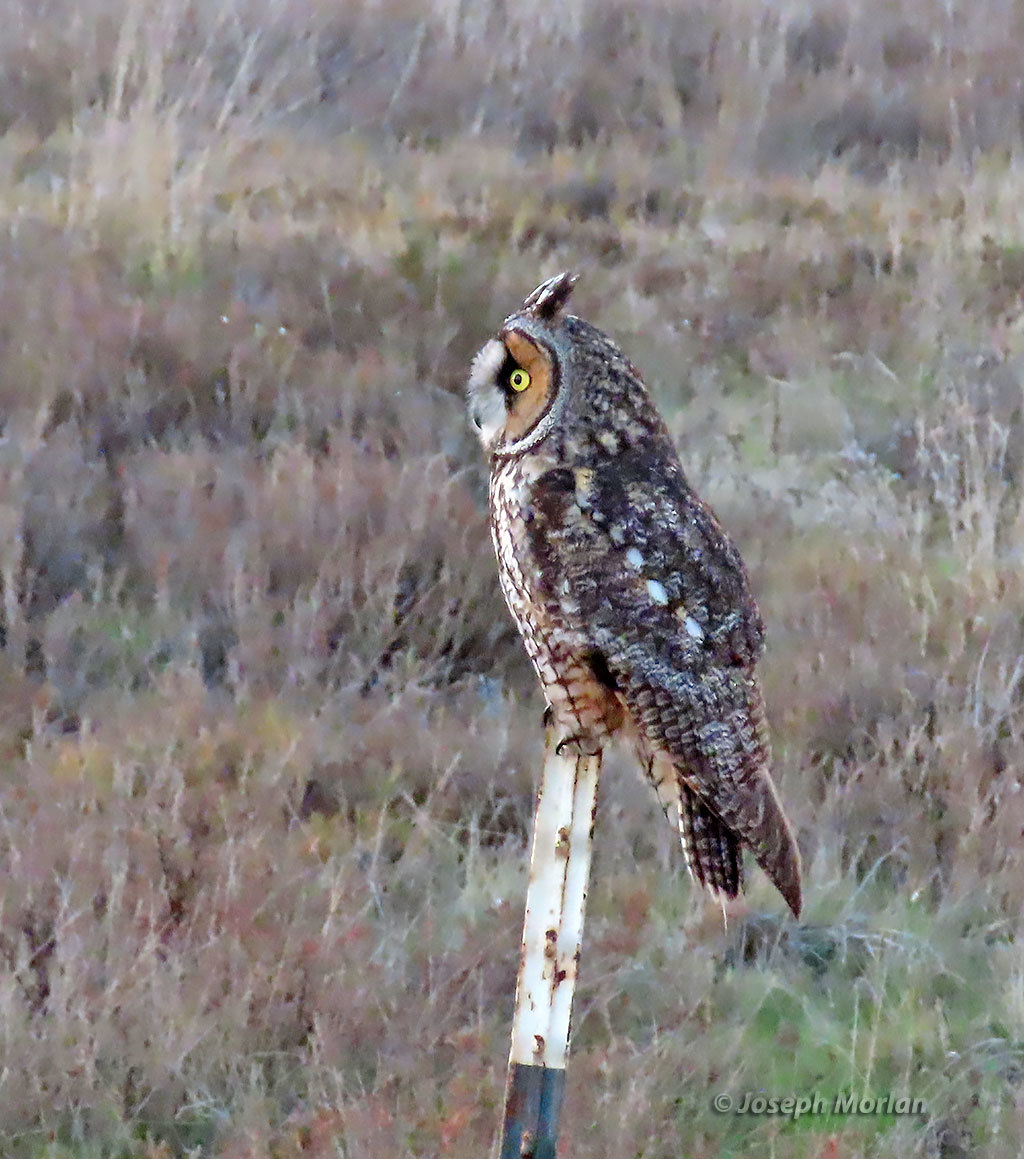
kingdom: Animalia
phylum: Chordata
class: Aves
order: Strigiformes
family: Strigidae
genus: Asio
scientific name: Asio otus
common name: Long-eared owl
